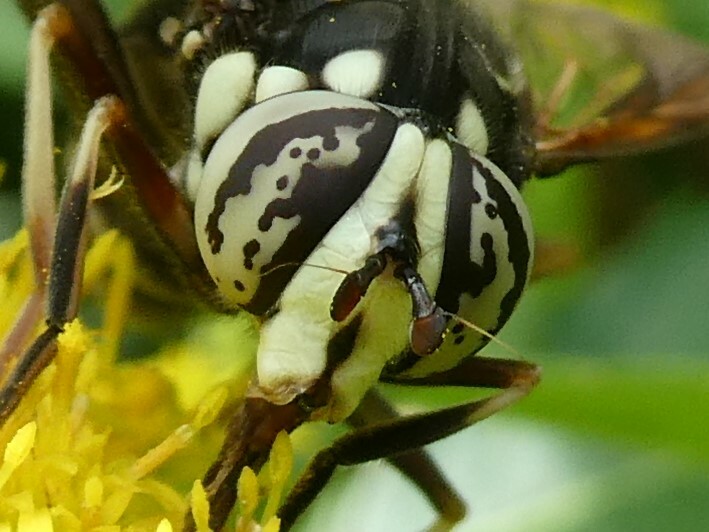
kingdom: Animalia
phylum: Arthropoda
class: Insecta
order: Diptera
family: Syrphidae
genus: Spilomyia
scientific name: Spilomyia fusca
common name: Bald-faced hornet fly
